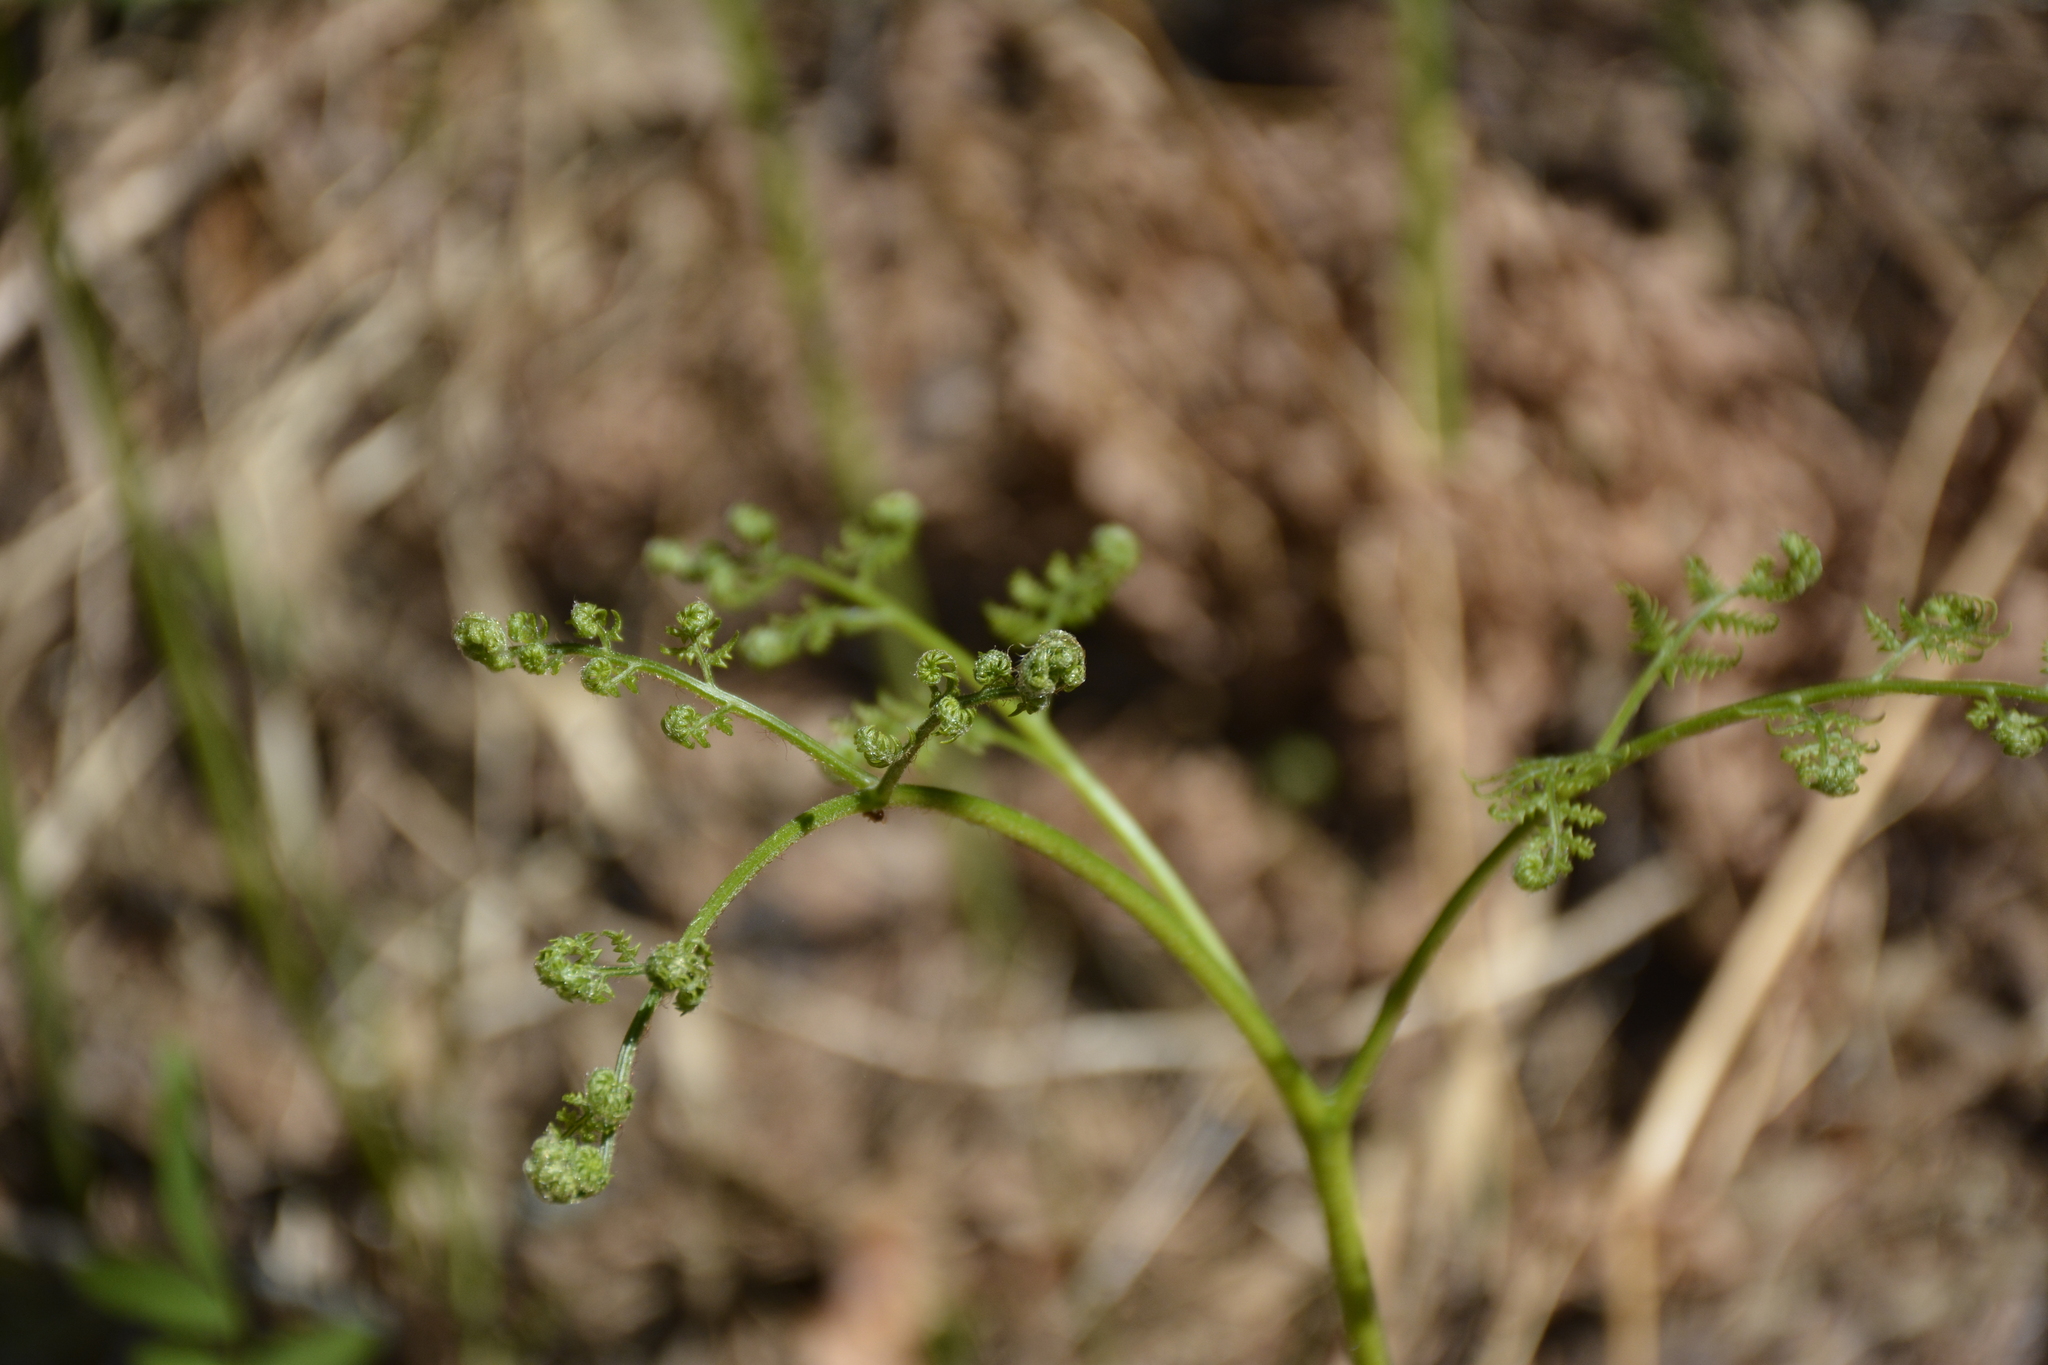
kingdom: Plantae
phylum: Tracheophyta
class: Polypodiopsida
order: Polypodiales
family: Dennstaedtiaceae
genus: Pteridium
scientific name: Pteridium aquilinum
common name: Bracken
